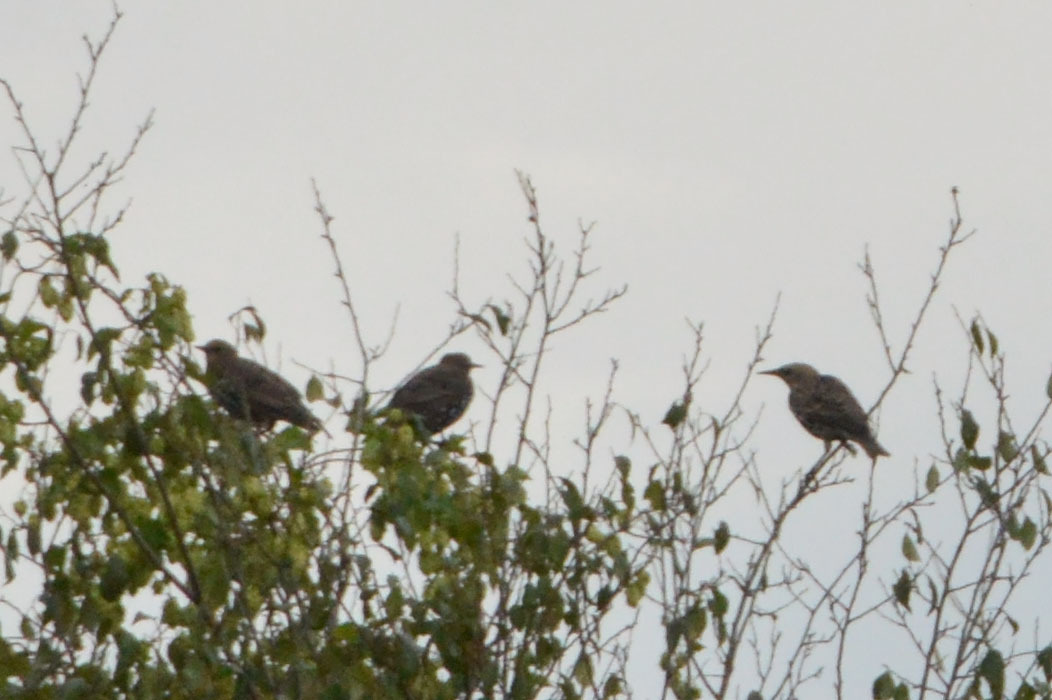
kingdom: Animalia
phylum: Chordata
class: Aves
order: Passeriformes
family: Sturnidae
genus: Sturnus
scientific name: Sturnus vulgaris
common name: Common starling
